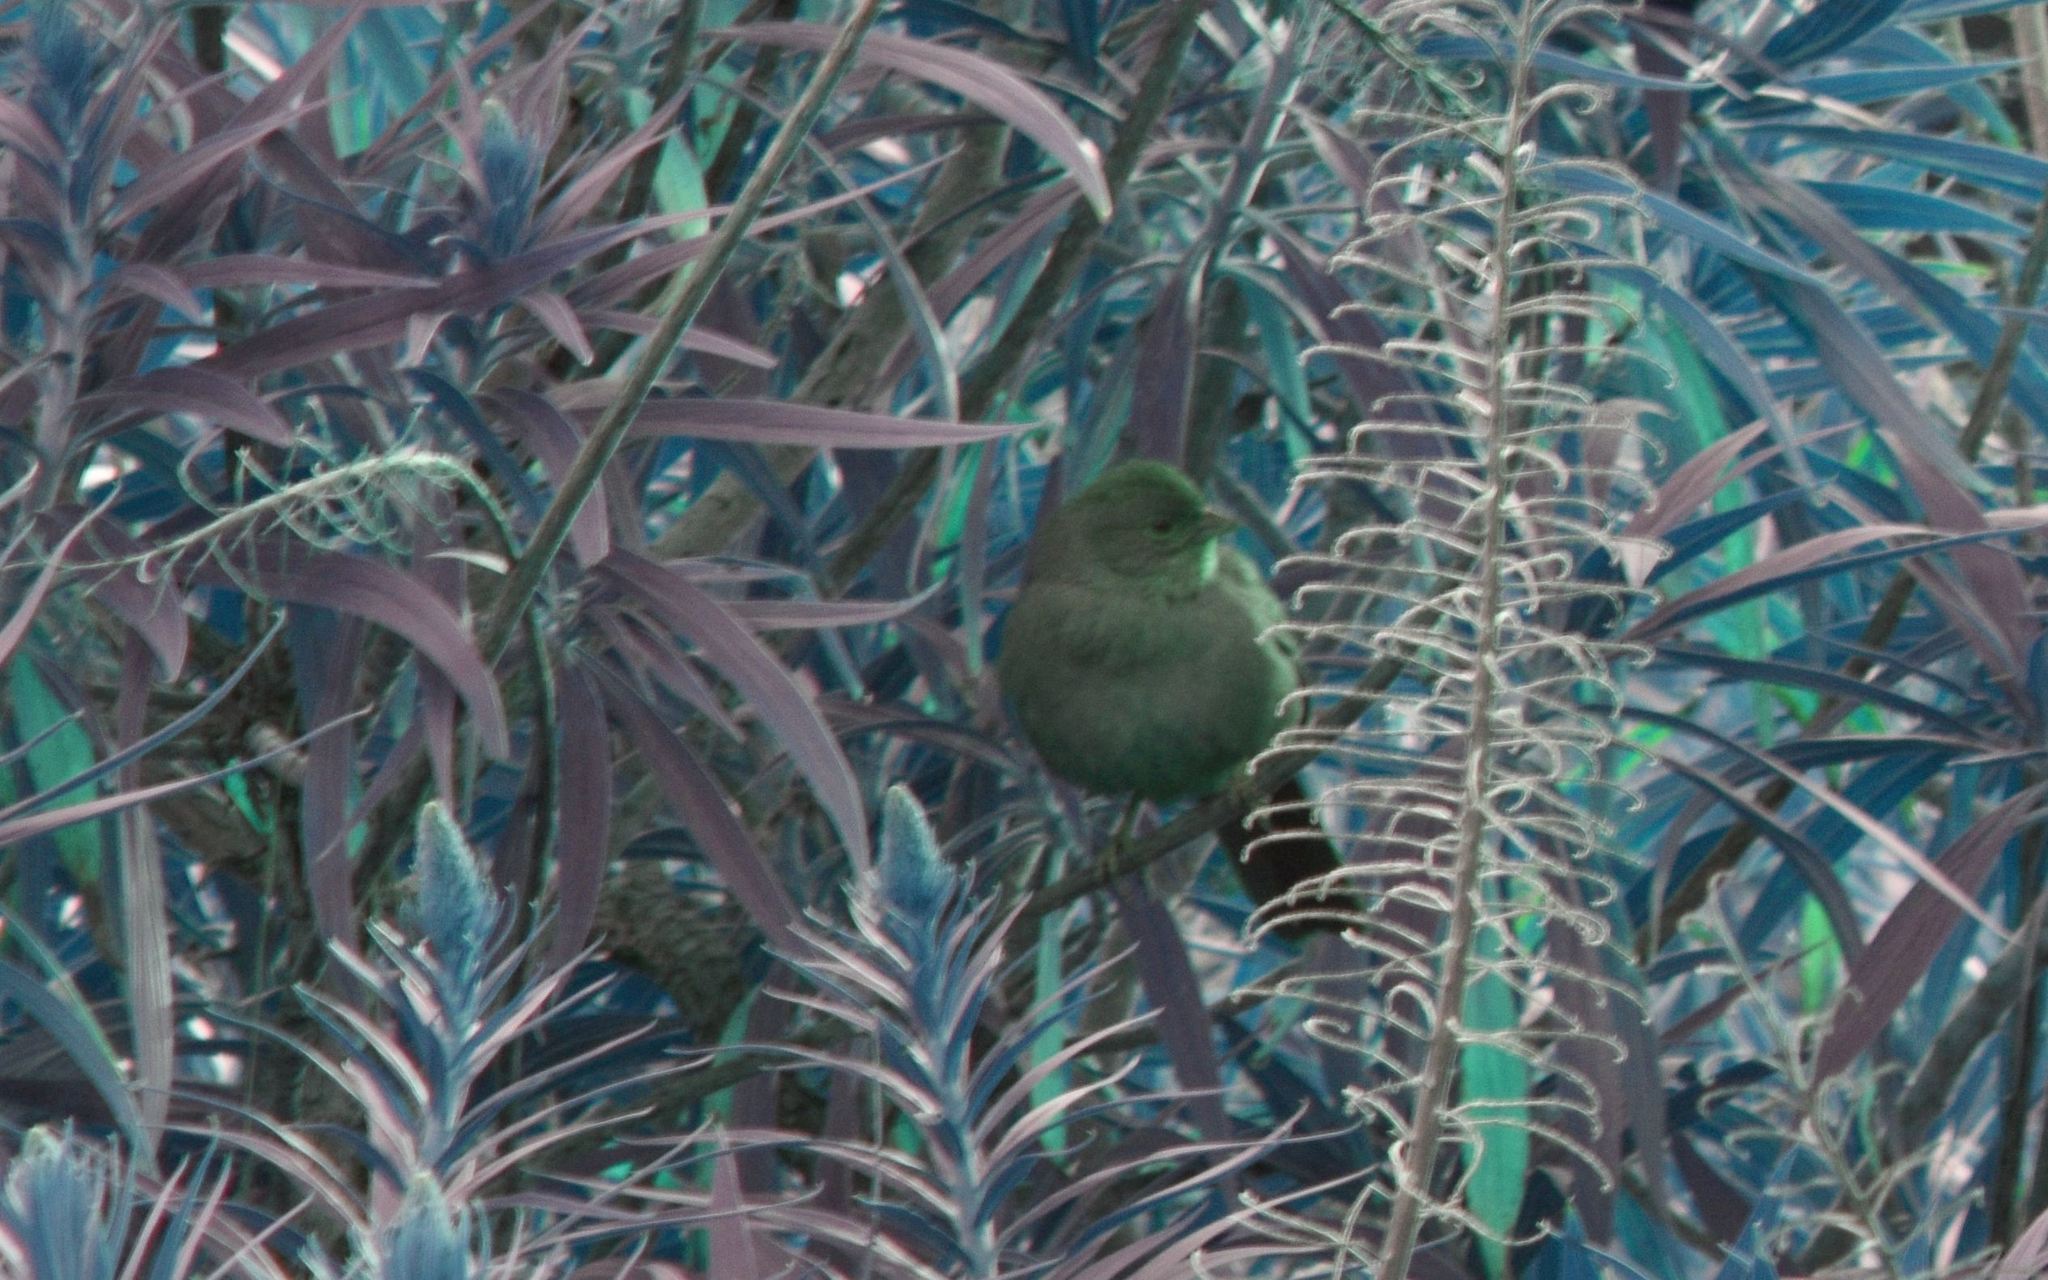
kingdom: Animalia
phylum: Chordata
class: Aves
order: Passeriformes
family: Passerellidae
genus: Melozone
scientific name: Melozone crissalis
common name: California towhee
